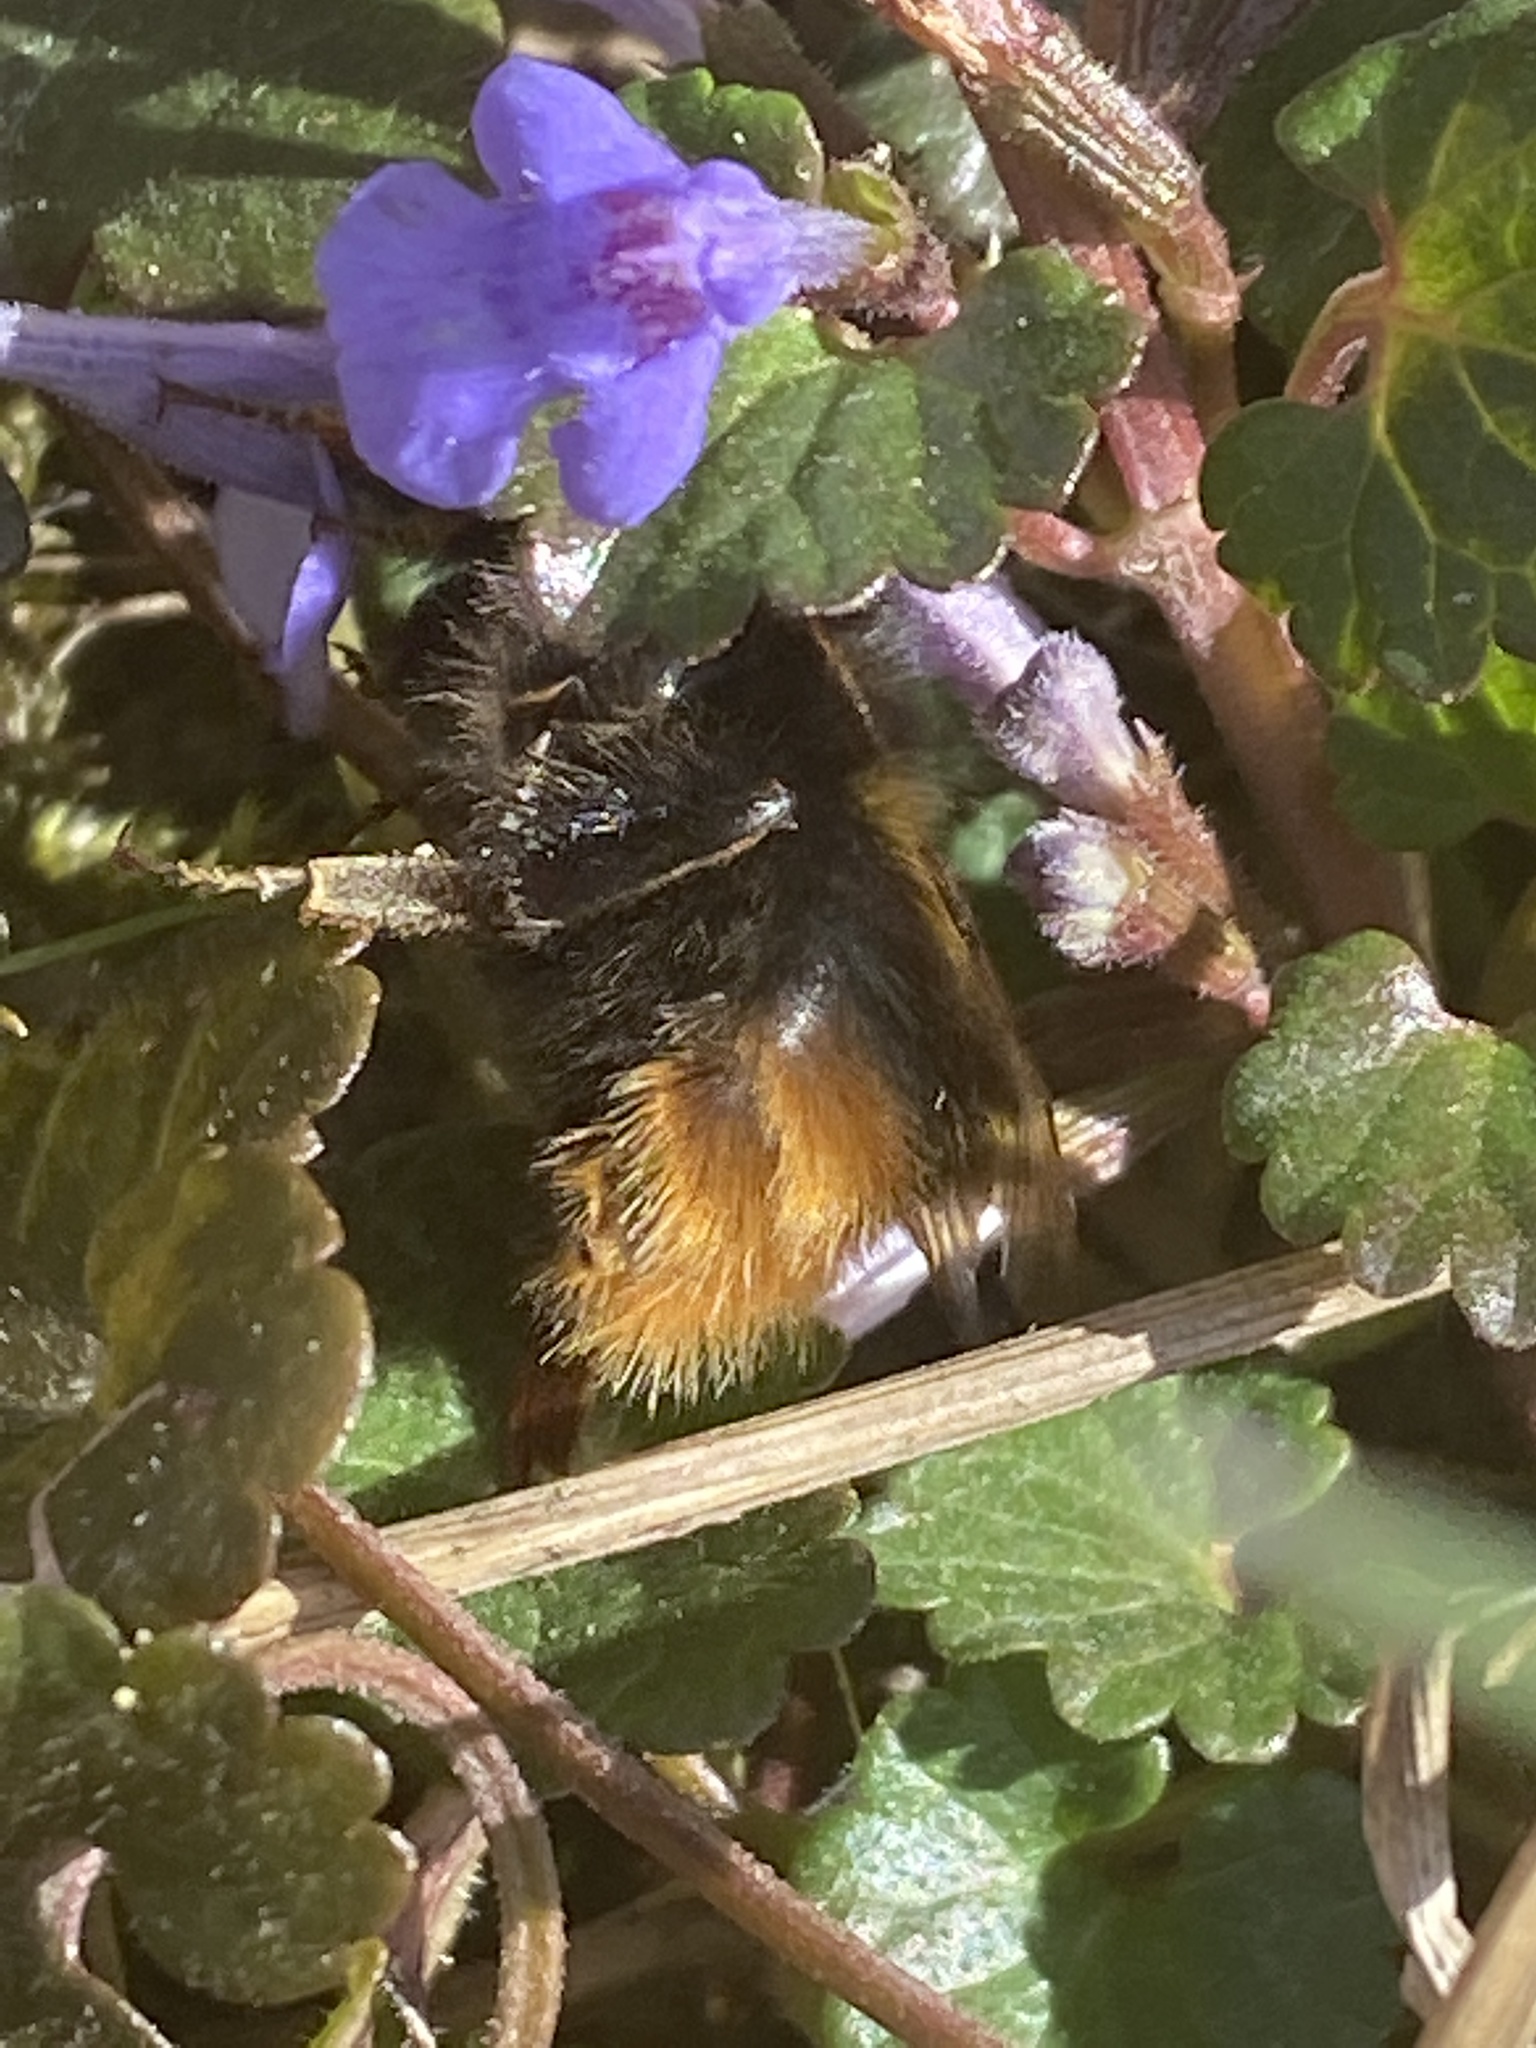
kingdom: Animalia
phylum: Arthropoda
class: Insecta
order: Hymenoptera
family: Apidae
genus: Bombus
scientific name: Bombus pratorum
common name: Early humble-bee
